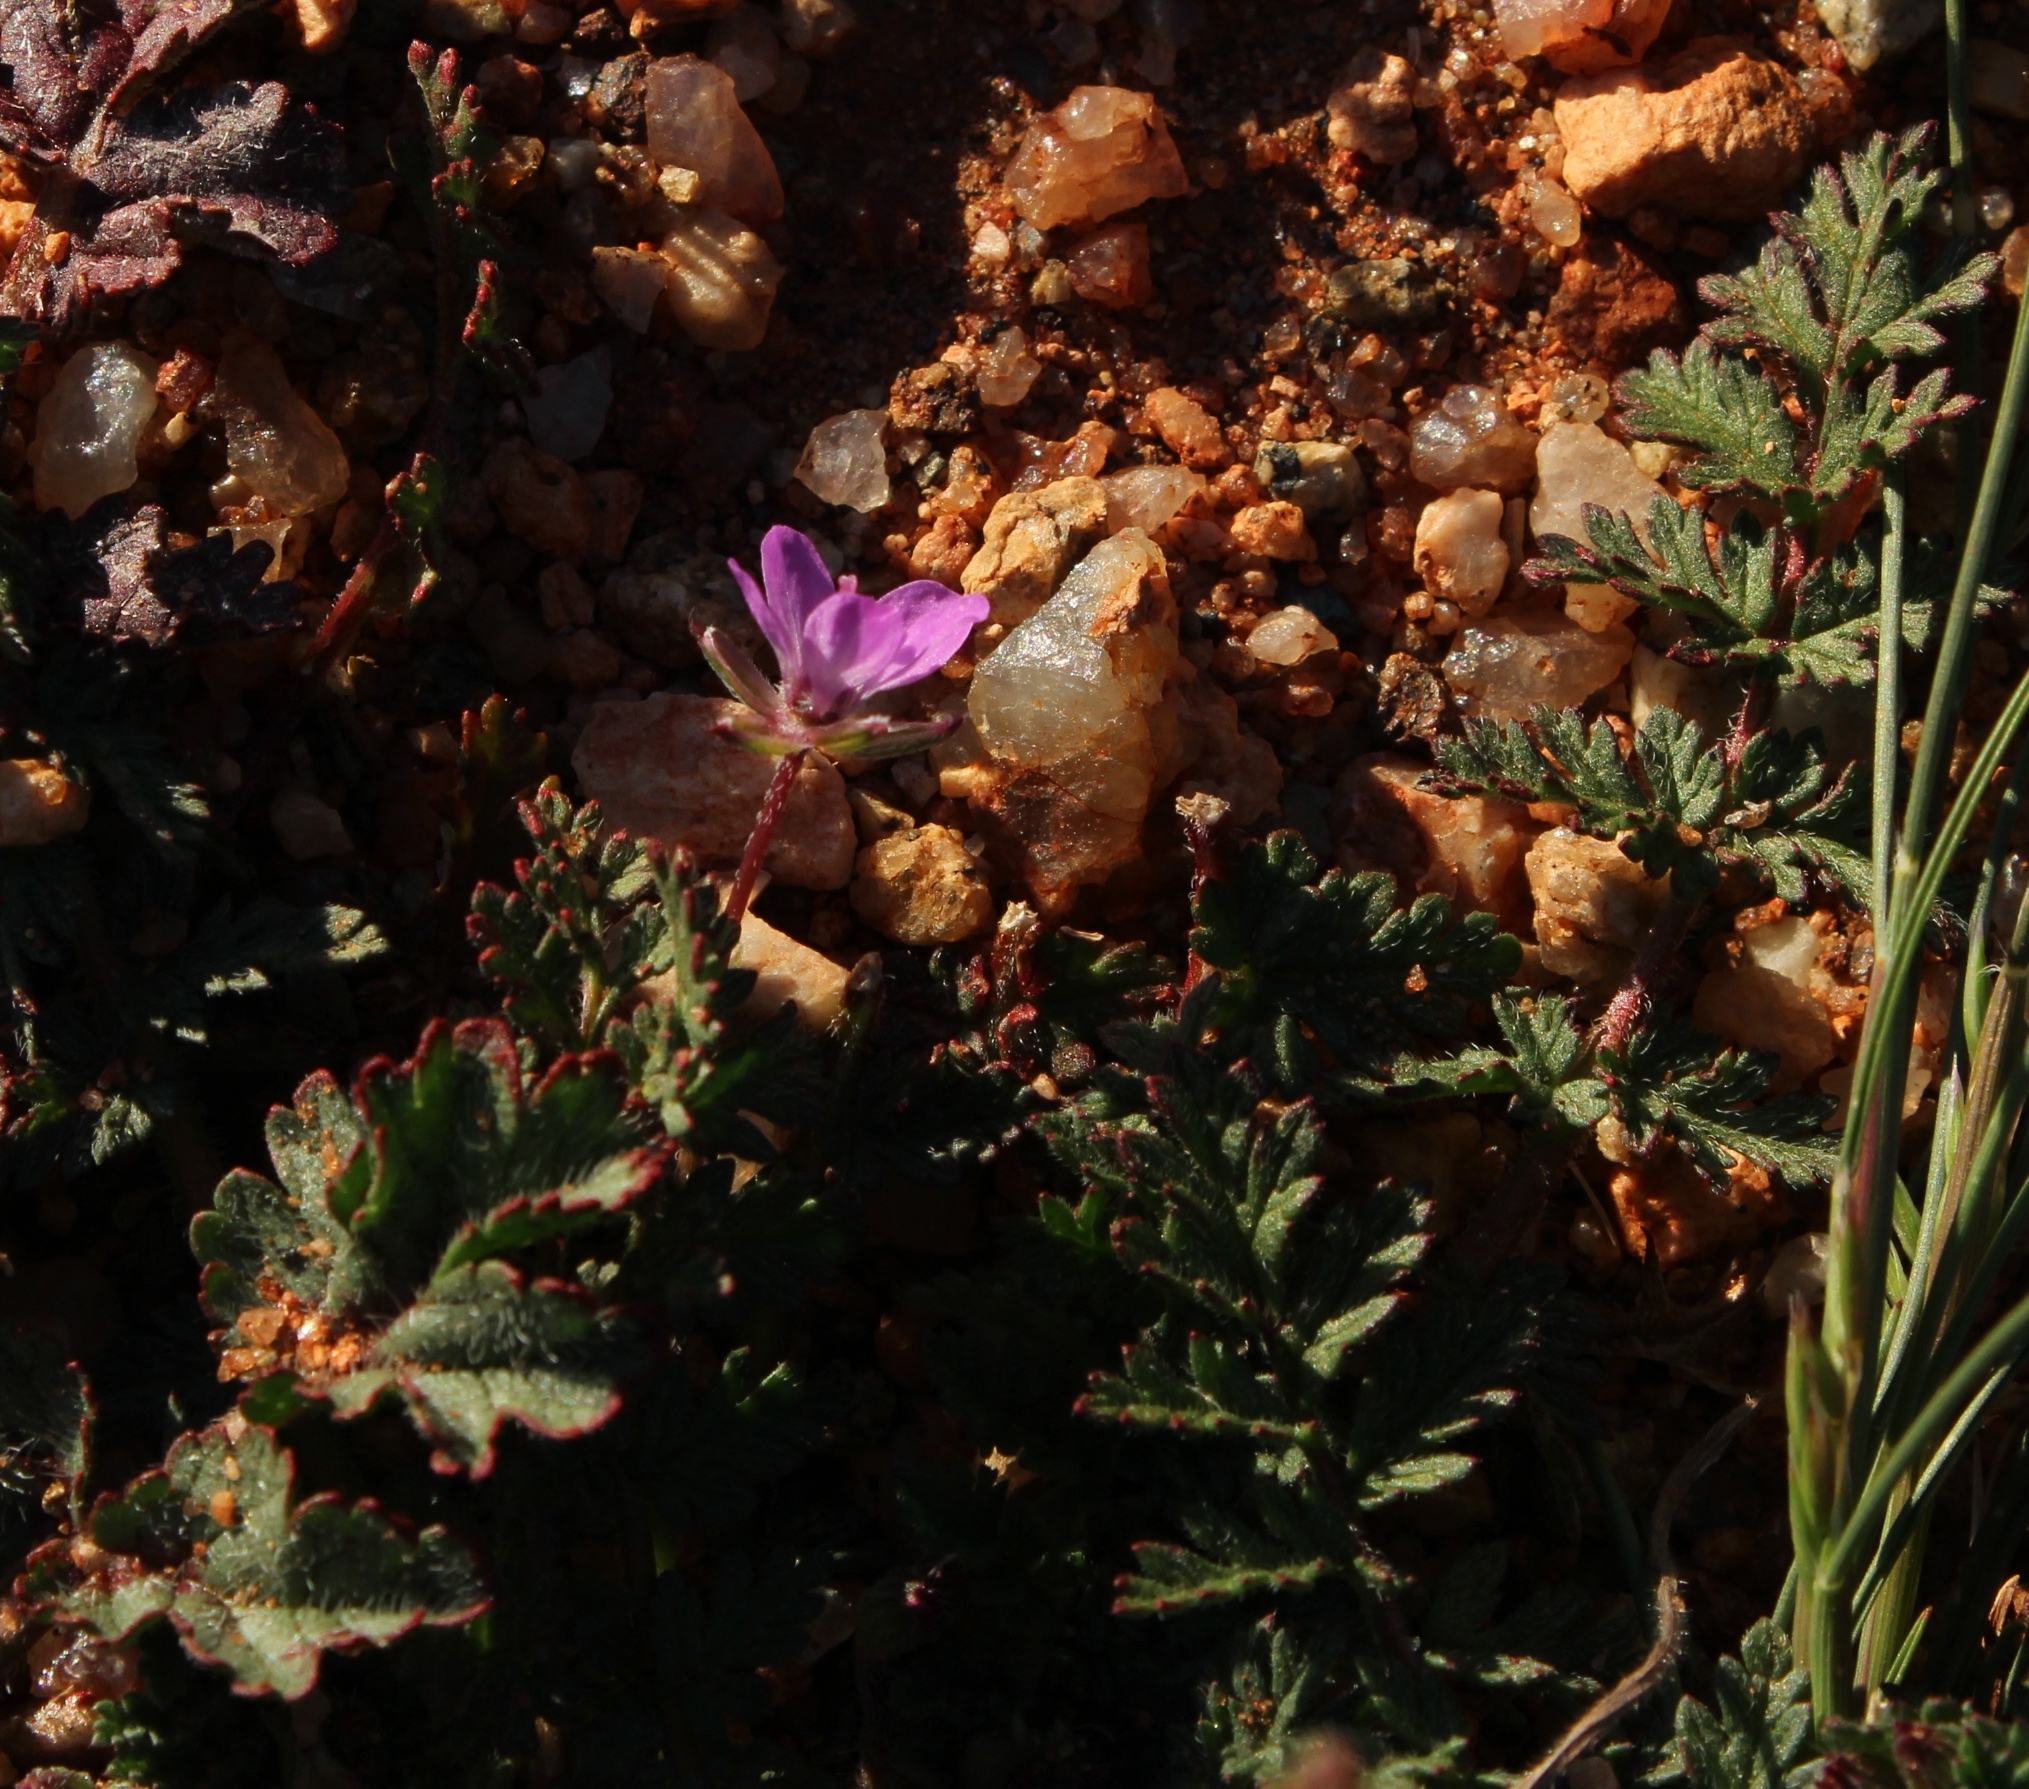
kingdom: Plantae
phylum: Tracheophyta
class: Magnoliopsida
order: Geraniales
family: Geraniaceae
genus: Erodium
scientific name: Erodium cicutarium
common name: Common stork's-bill
